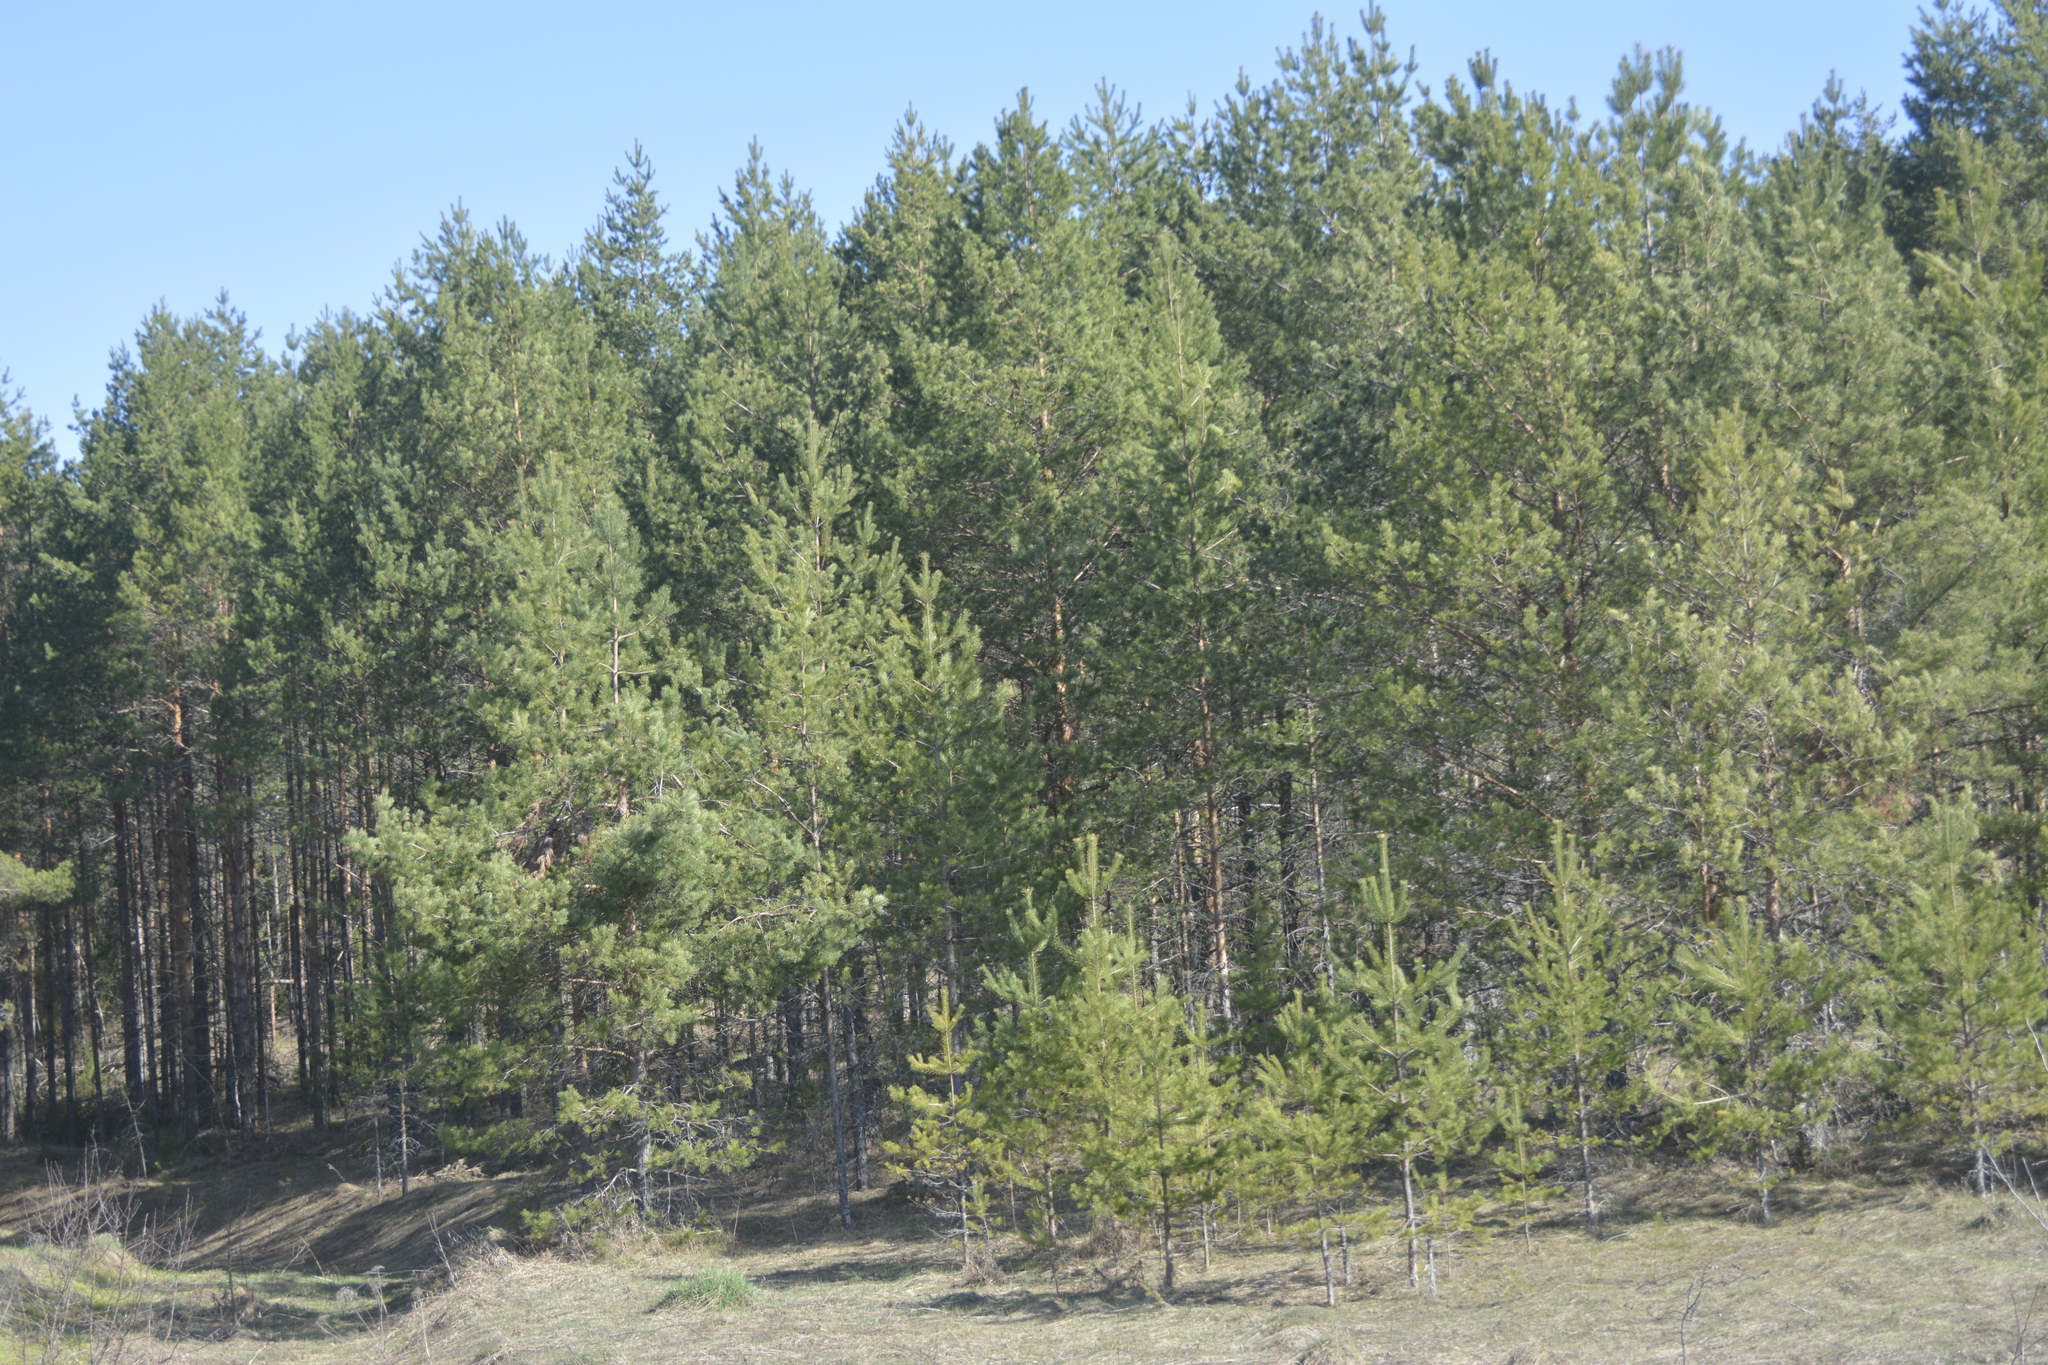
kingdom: Plantae
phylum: Tracheophyta
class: Pinopsida
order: Pinales
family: Pinaceae
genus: Pinus
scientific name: Pinus sylvestris
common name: Scots pine
